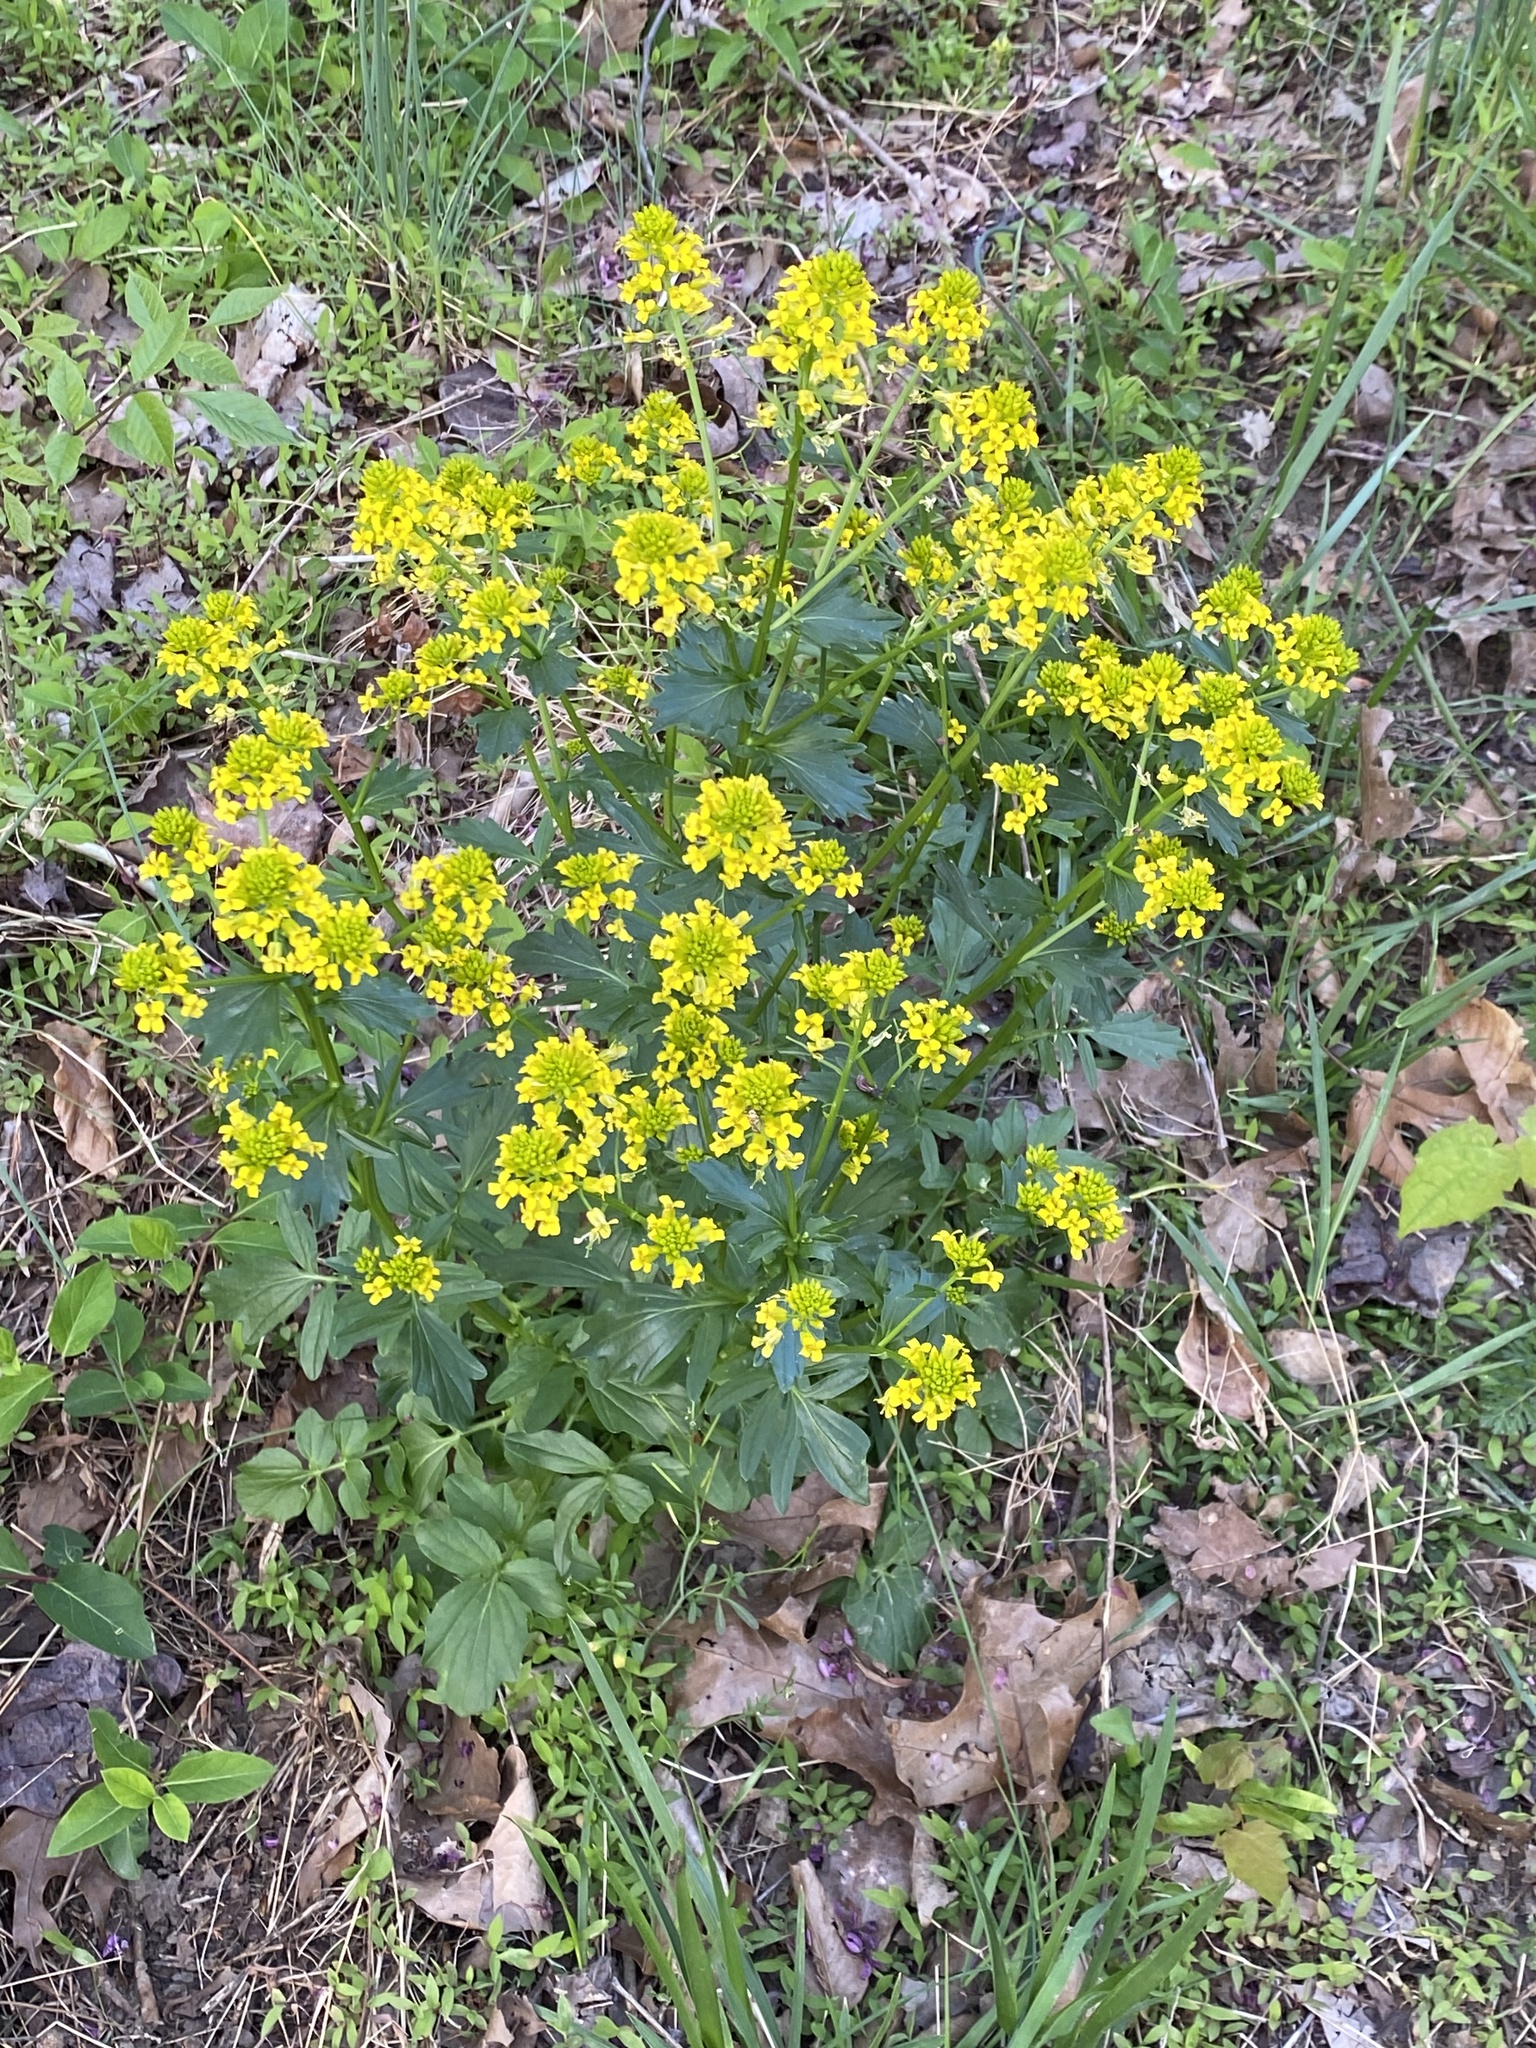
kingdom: Plantae
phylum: Tracheophyta
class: Magnoliopsida
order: Brassicales
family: Brassicaceae
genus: Barbarea
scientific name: Barbarea vulgaris
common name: Cressy-greens
